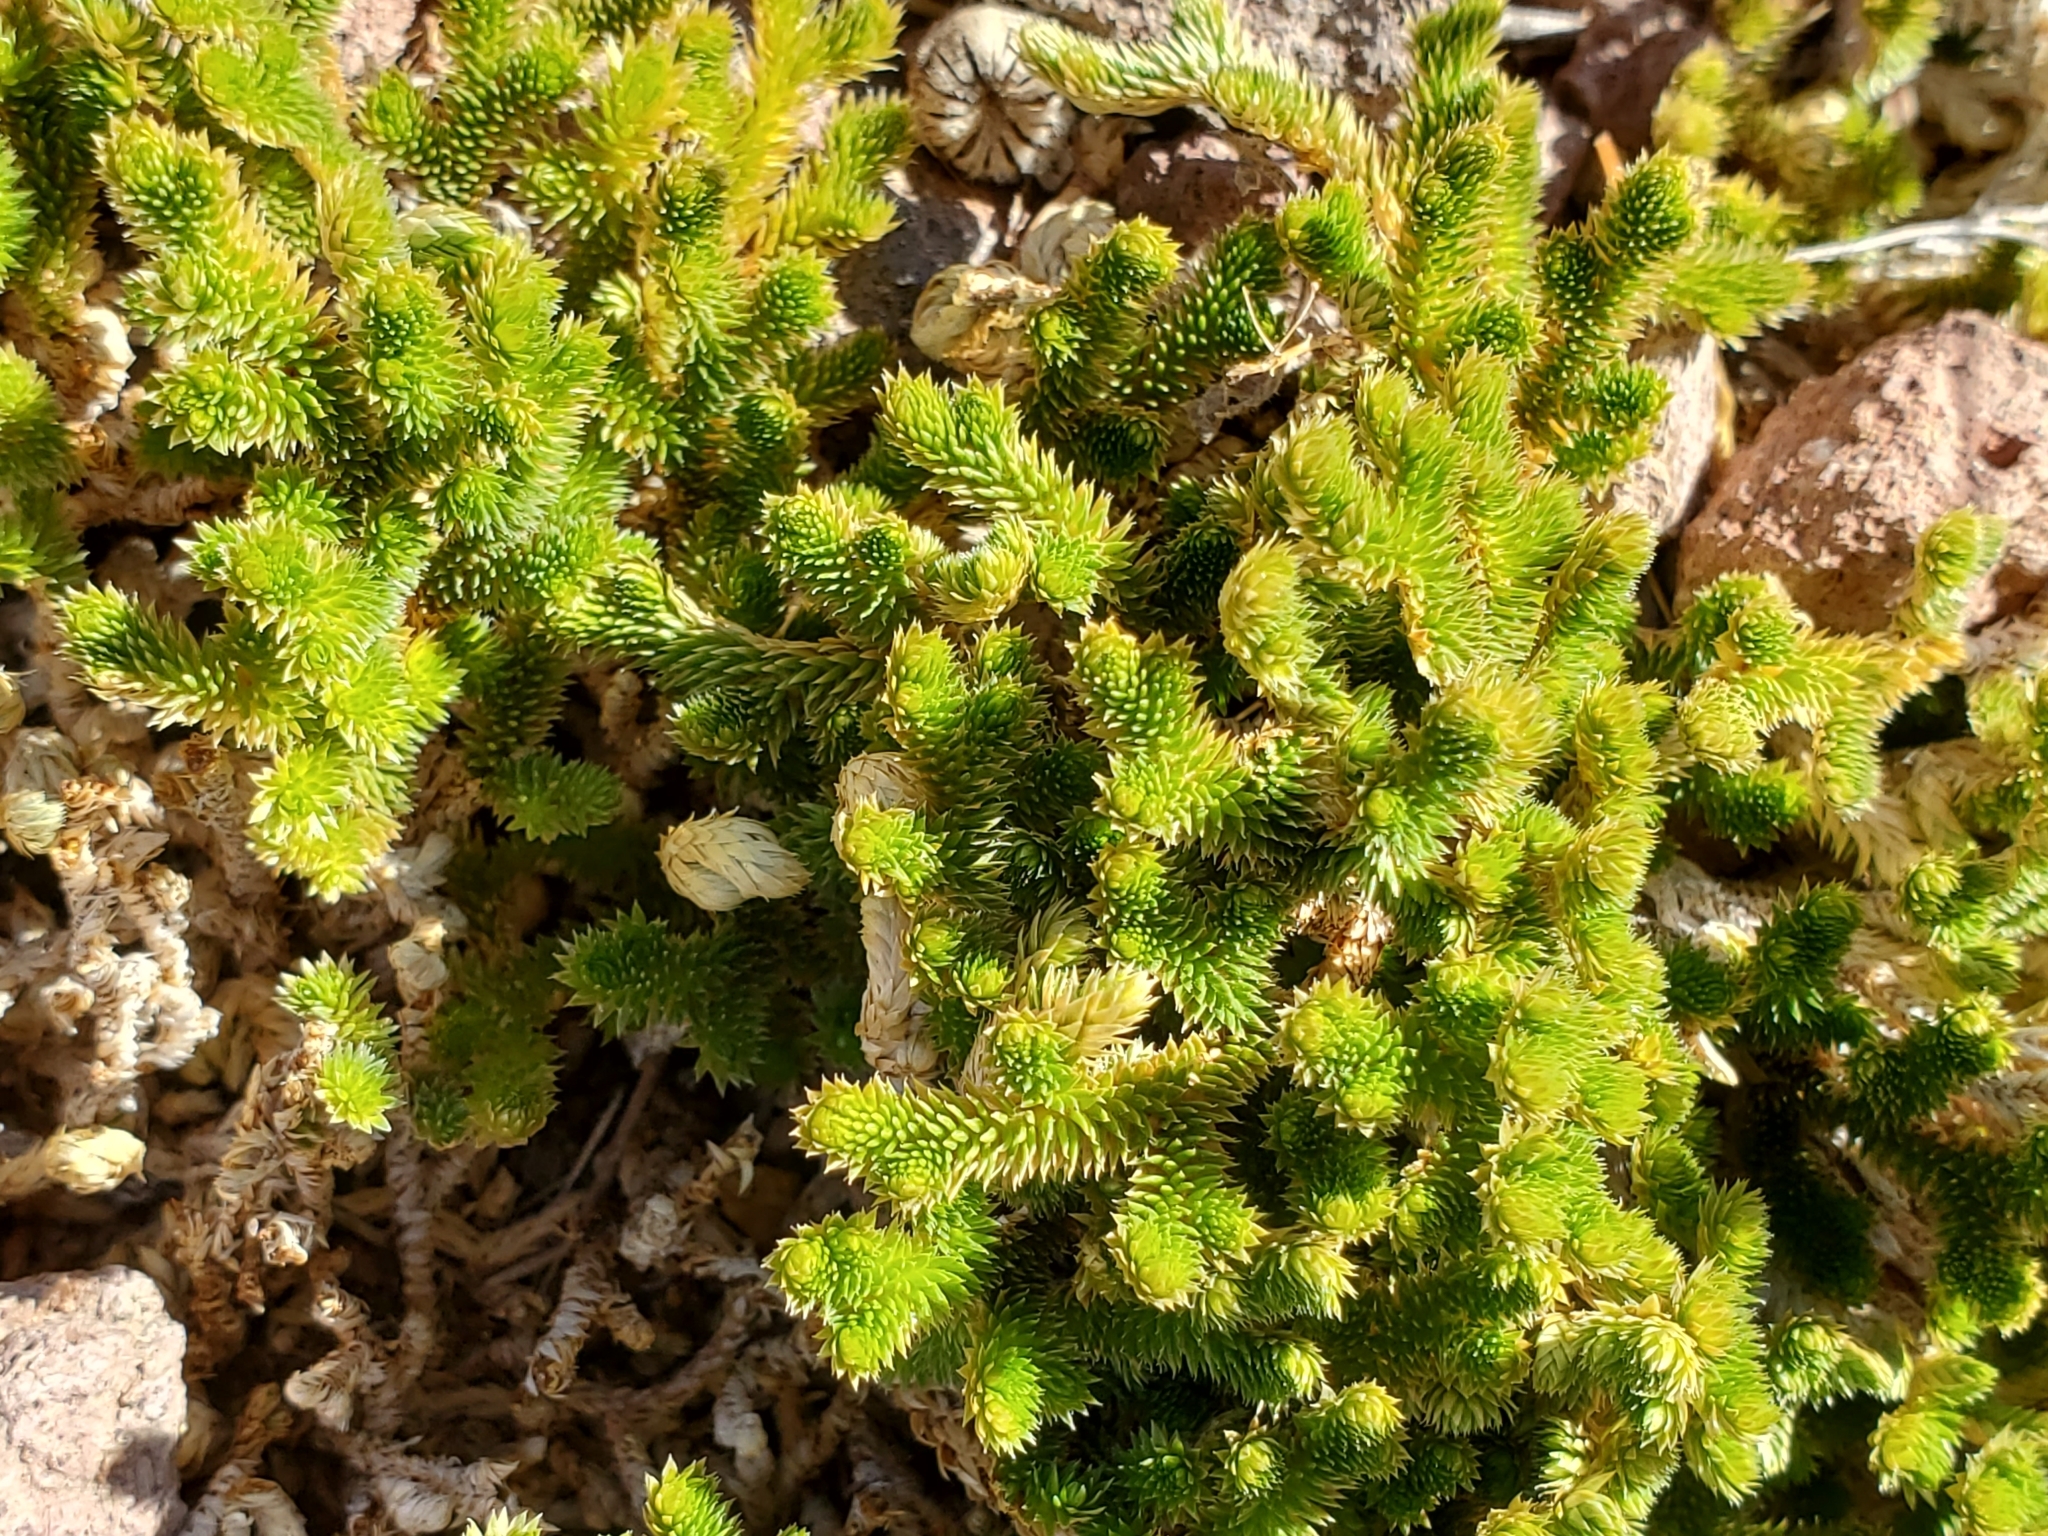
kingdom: Plantae
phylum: Tracheophyta
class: Lycopodiopsida
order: Selaginellales
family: Selaginellaceae
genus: Selaginella
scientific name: Selaginella arizonica
